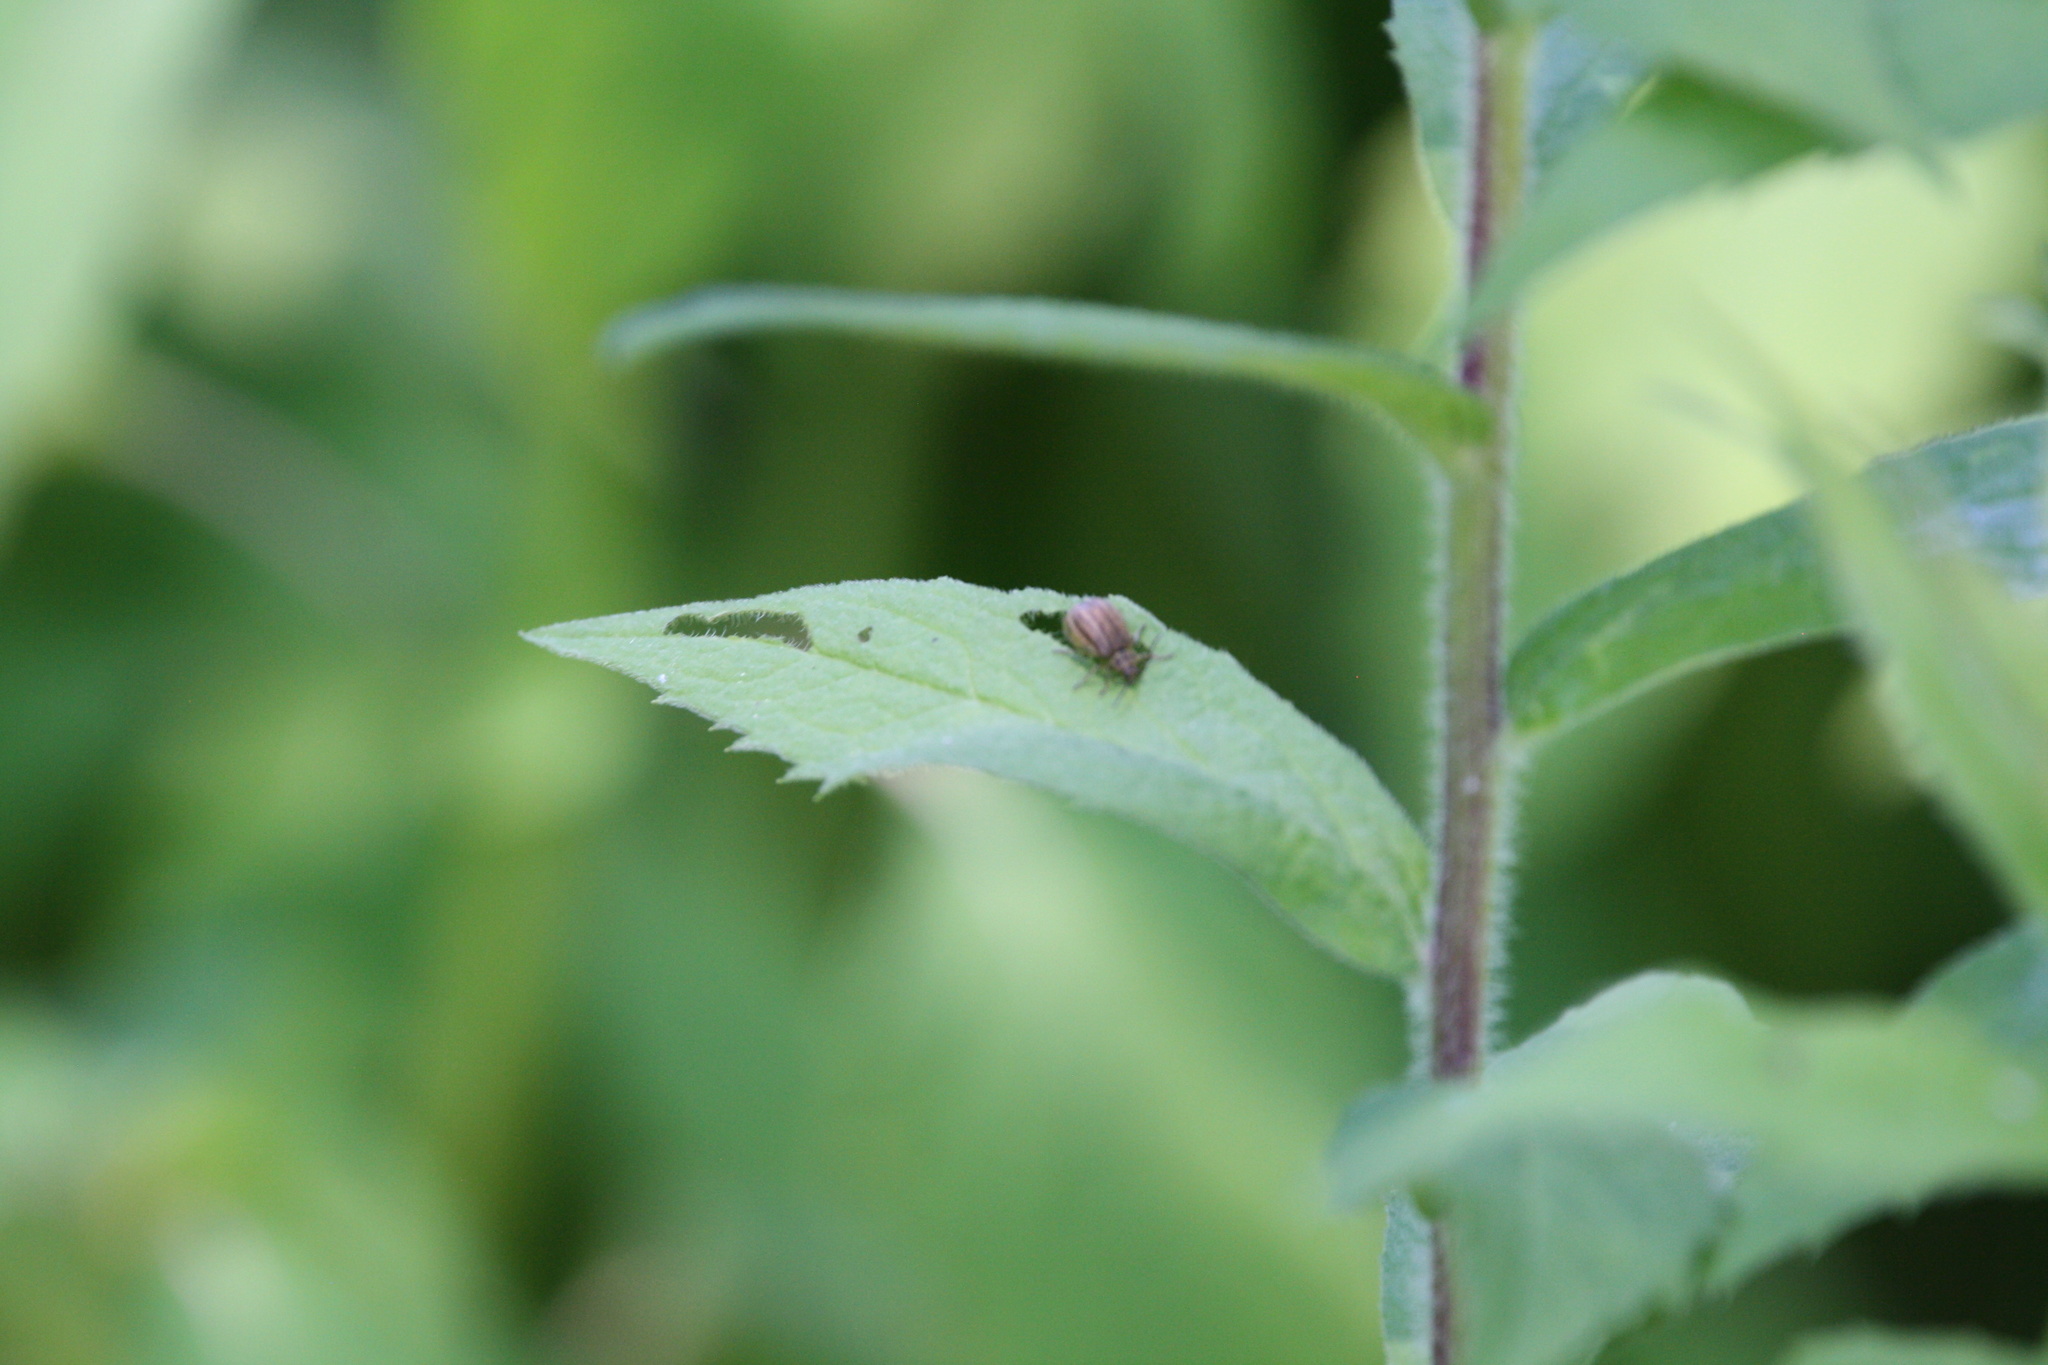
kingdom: Animalia
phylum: Arthropoda
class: Insecta
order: Coleoptera
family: Chrysomelidae
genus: Ophraella
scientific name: Ophraella conferta
